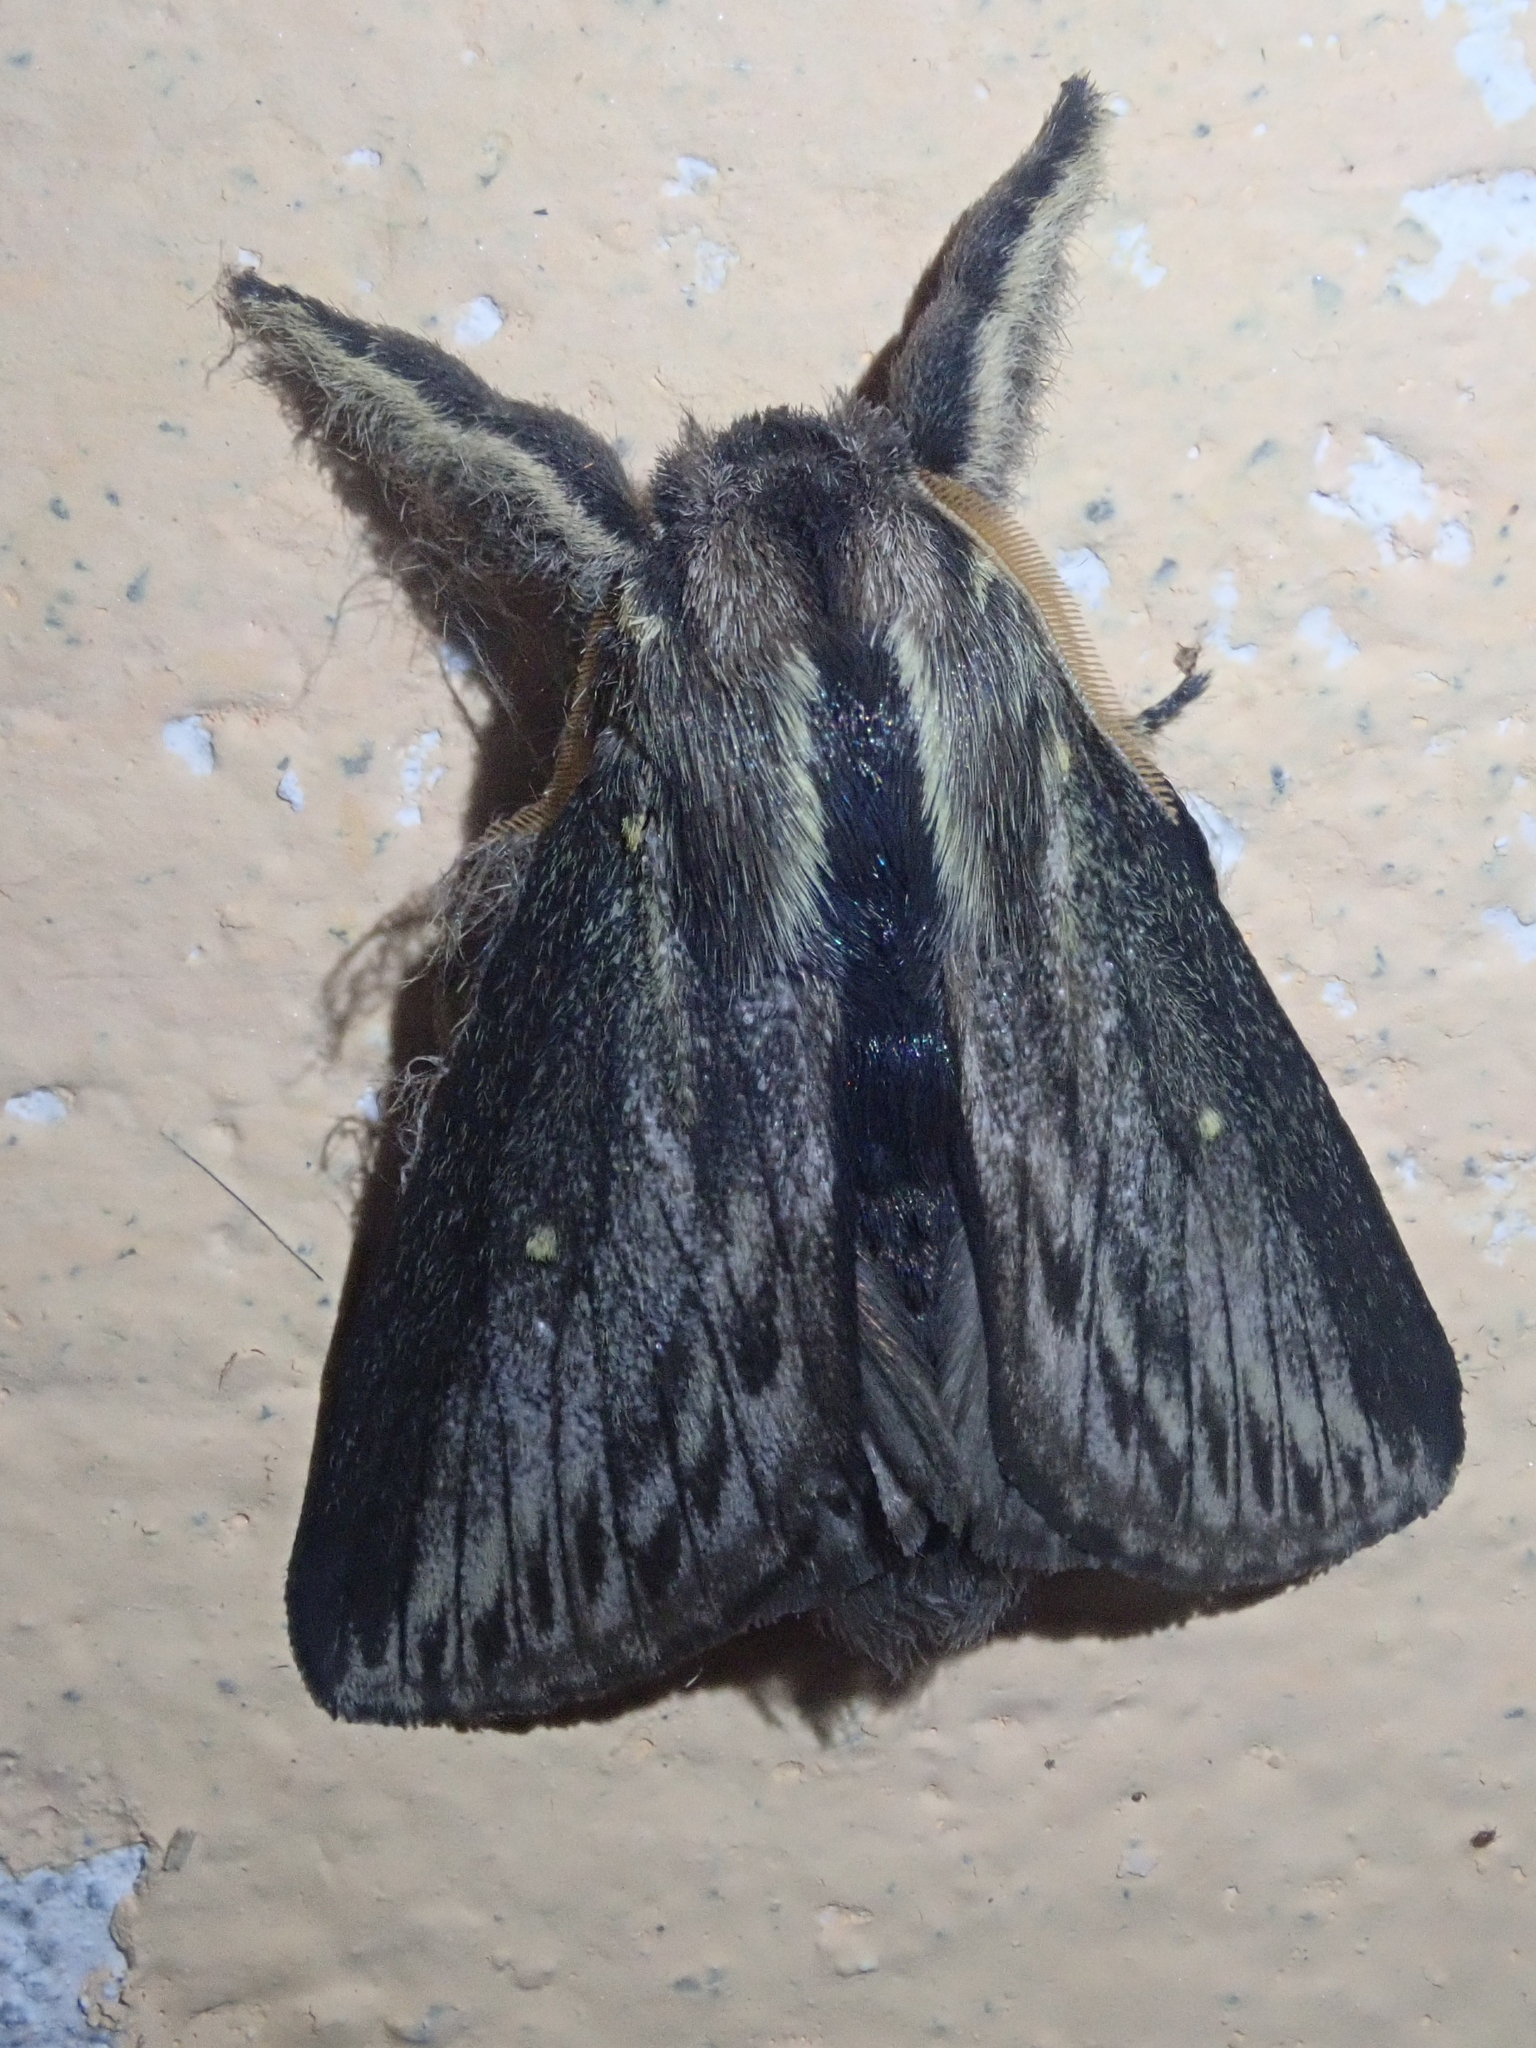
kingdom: Animalia
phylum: Arthropoda
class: Insecta
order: Lepidoptera
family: Lasiocampidae
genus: Sphinta
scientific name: Sphinta cossoides
